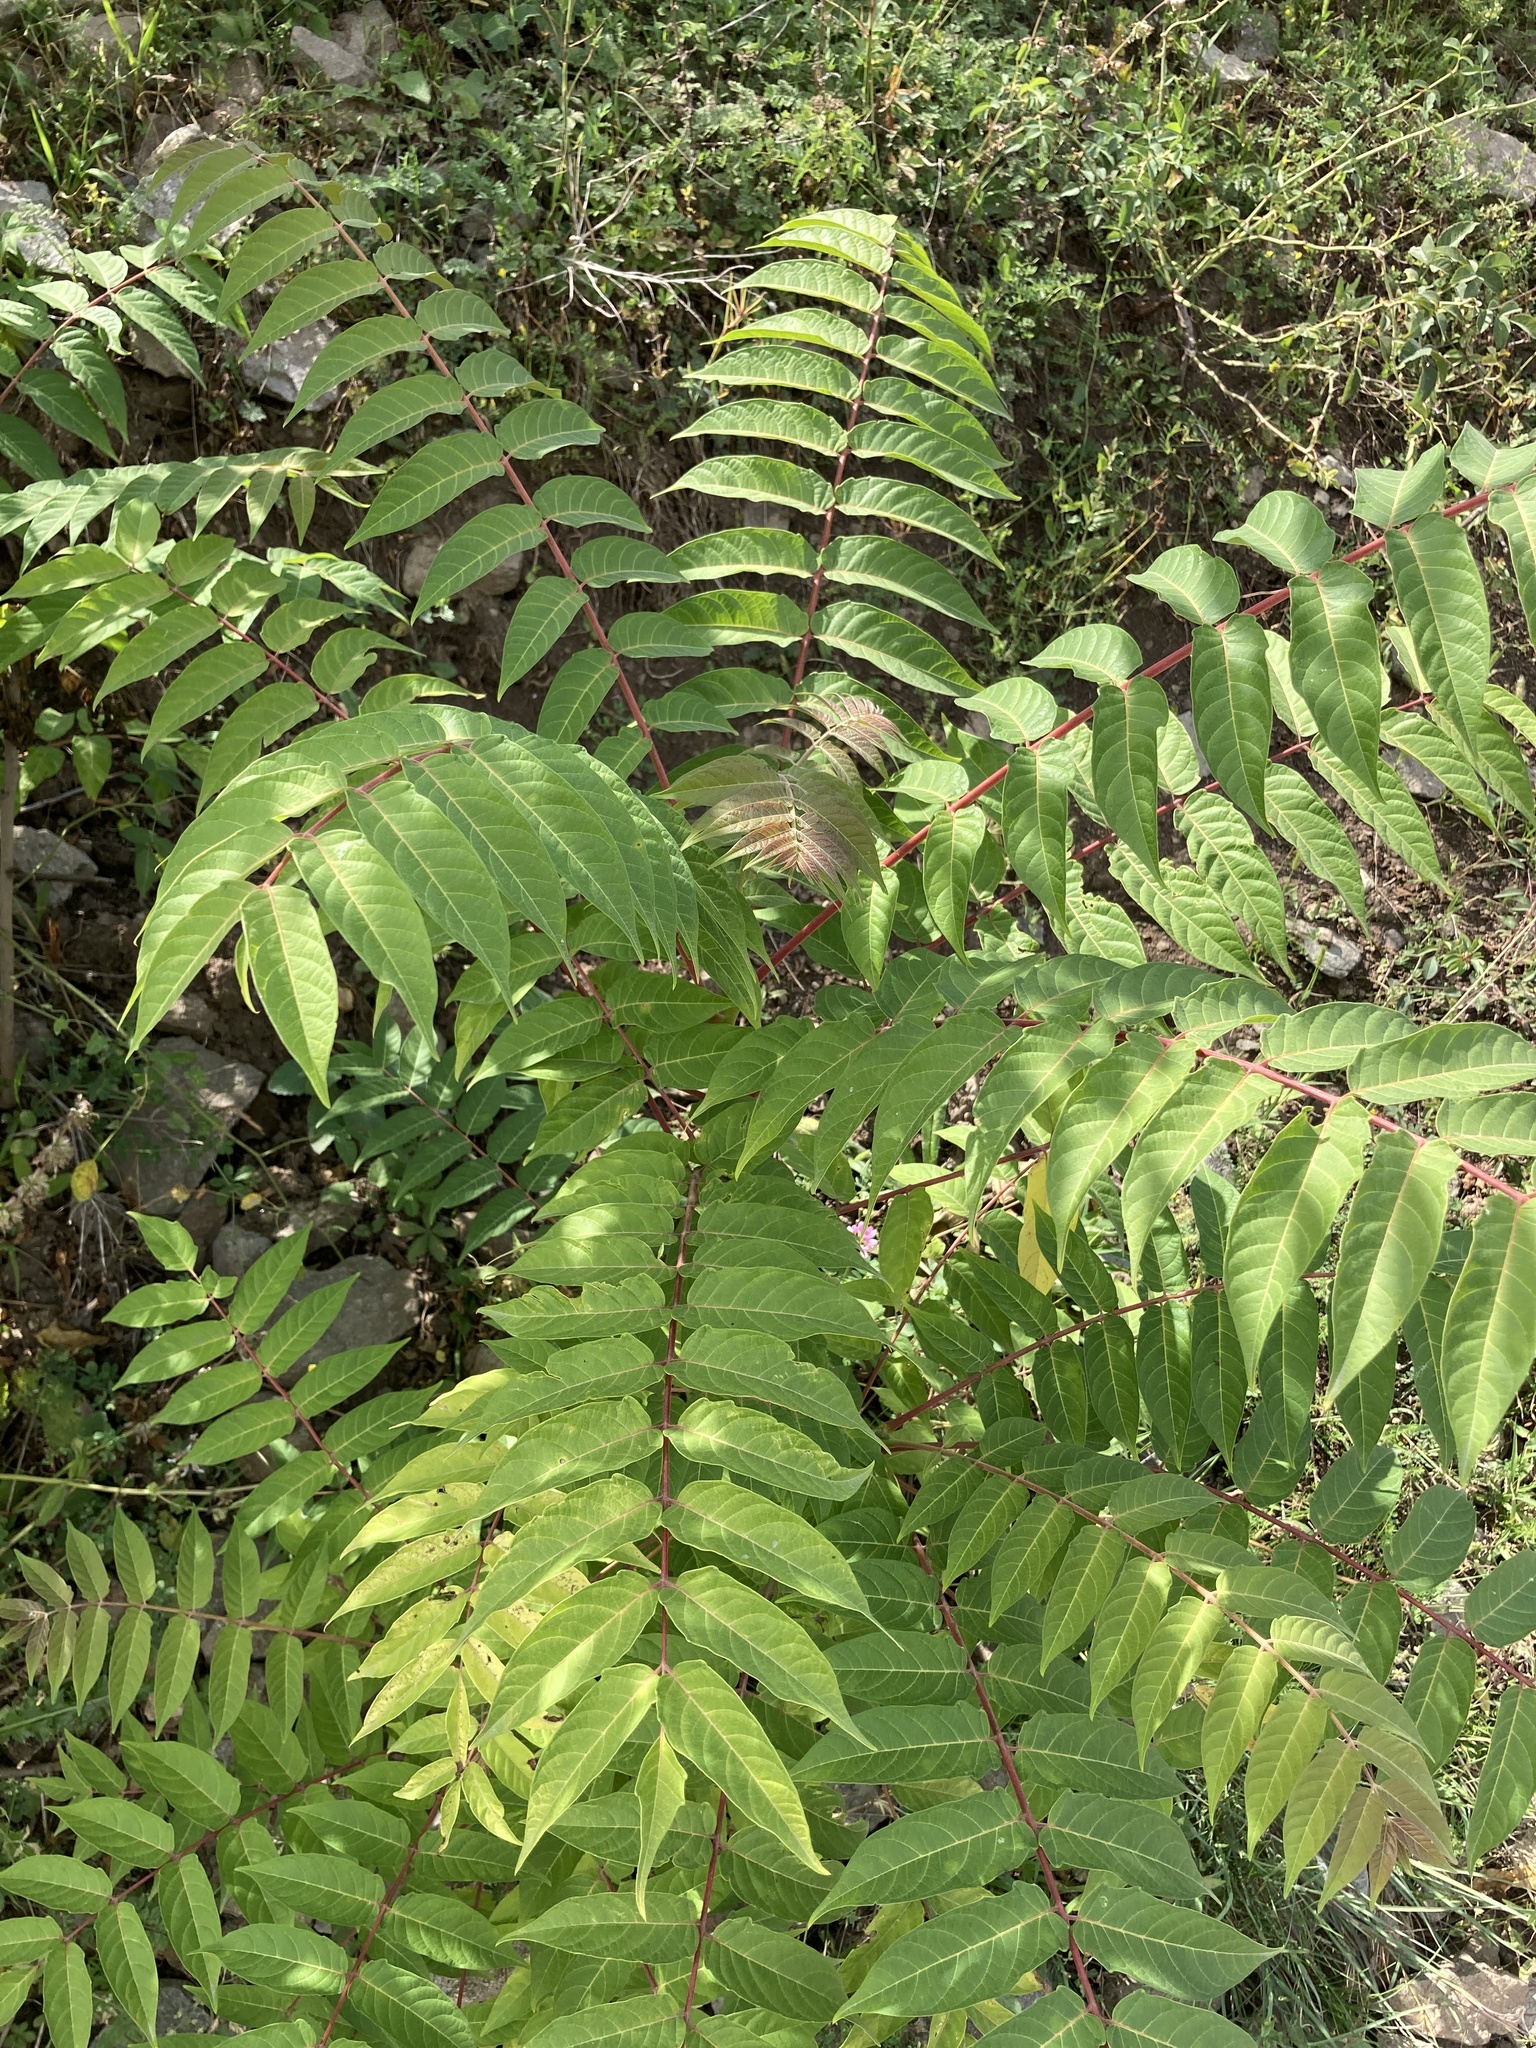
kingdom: Plantae
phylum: Tracheophyta
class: Magnoliopsida
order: Sapindales
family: Simaroubaceae
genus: Ailanthus
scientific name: Ailanthus altissima
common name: Tree-of-heaven
